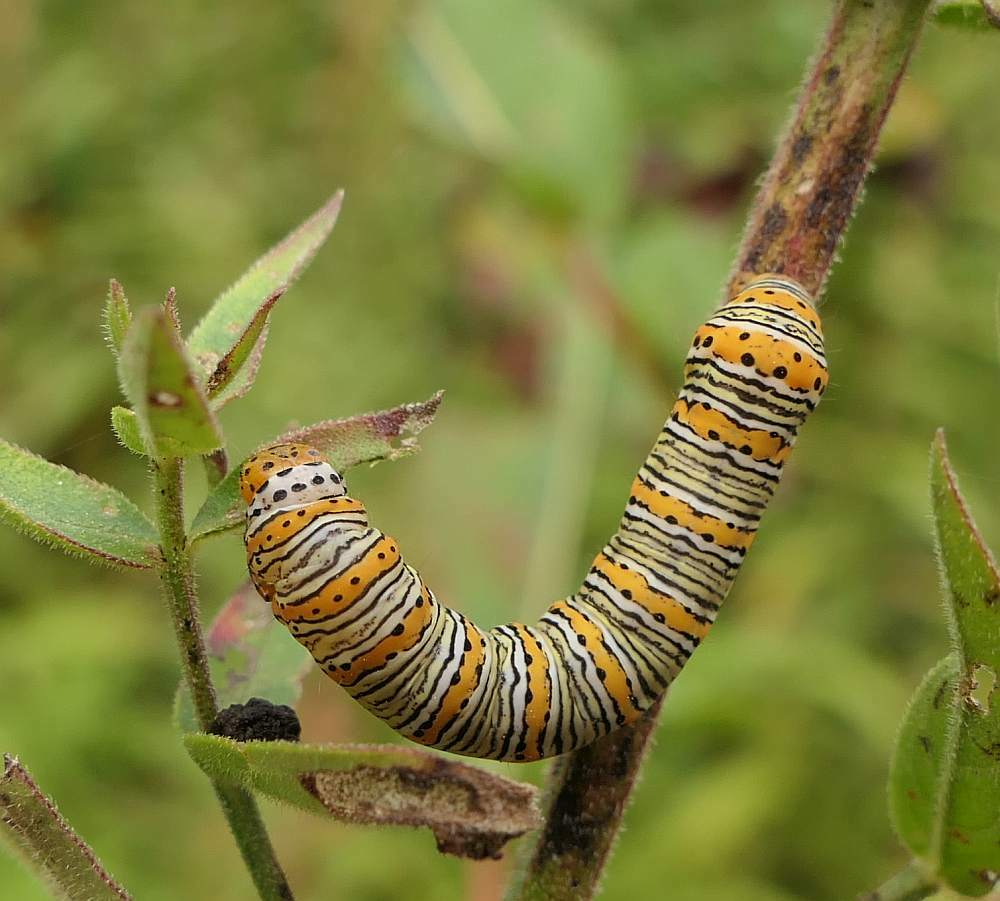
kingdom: Animalia
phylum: Arthropoda
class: Insecta
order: Lepidoptera
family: Noctuidae
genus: Eudryas
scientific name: Eudryas unio
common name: Pearly wood-nymph
